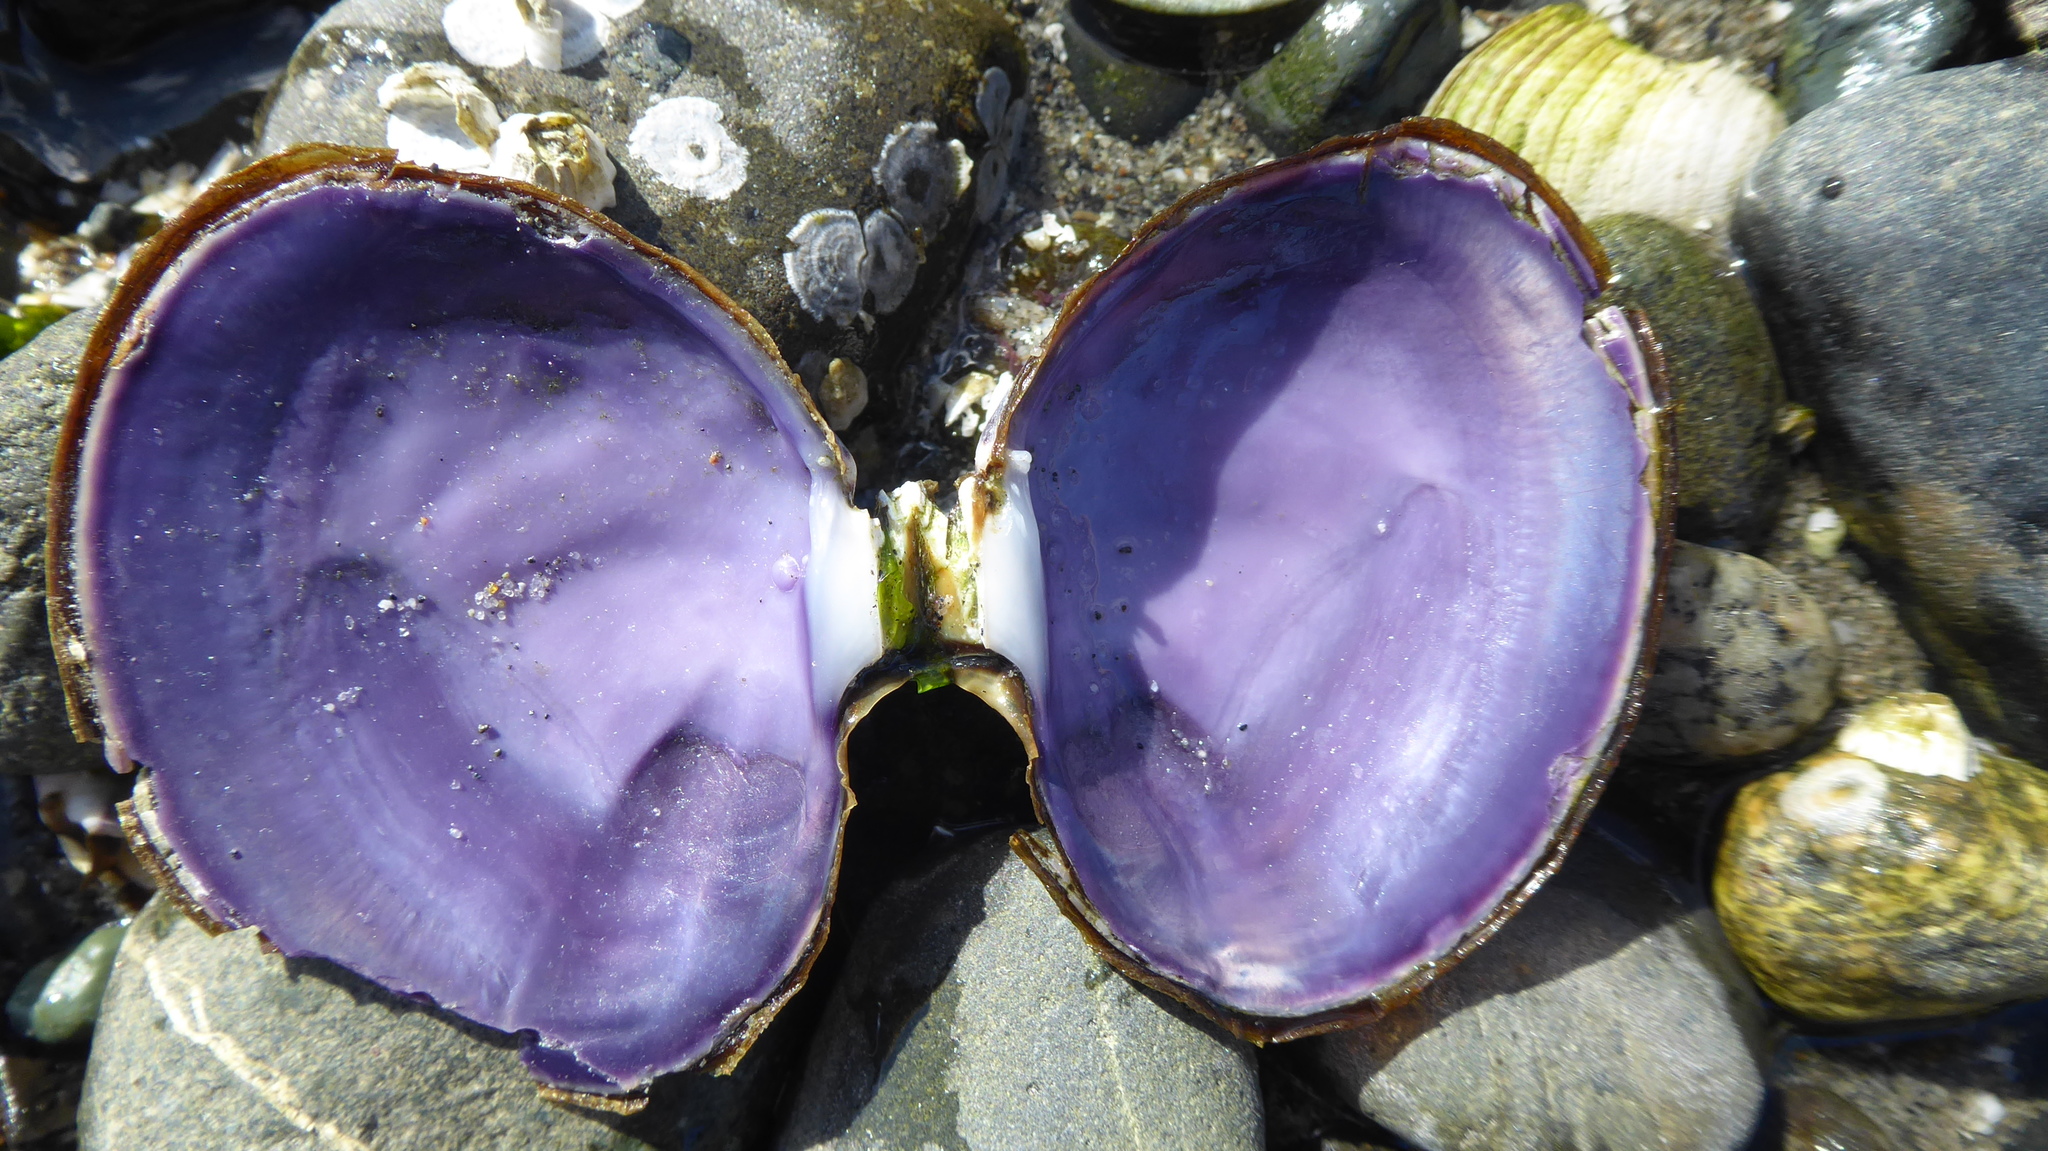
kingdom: Animalia
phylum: Mollusca
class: Bivalvia
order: Cardiida
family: Psammobiidae
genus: Nuttallia
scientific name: Nuttallia obscurata
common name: Purple mahogany-clam
